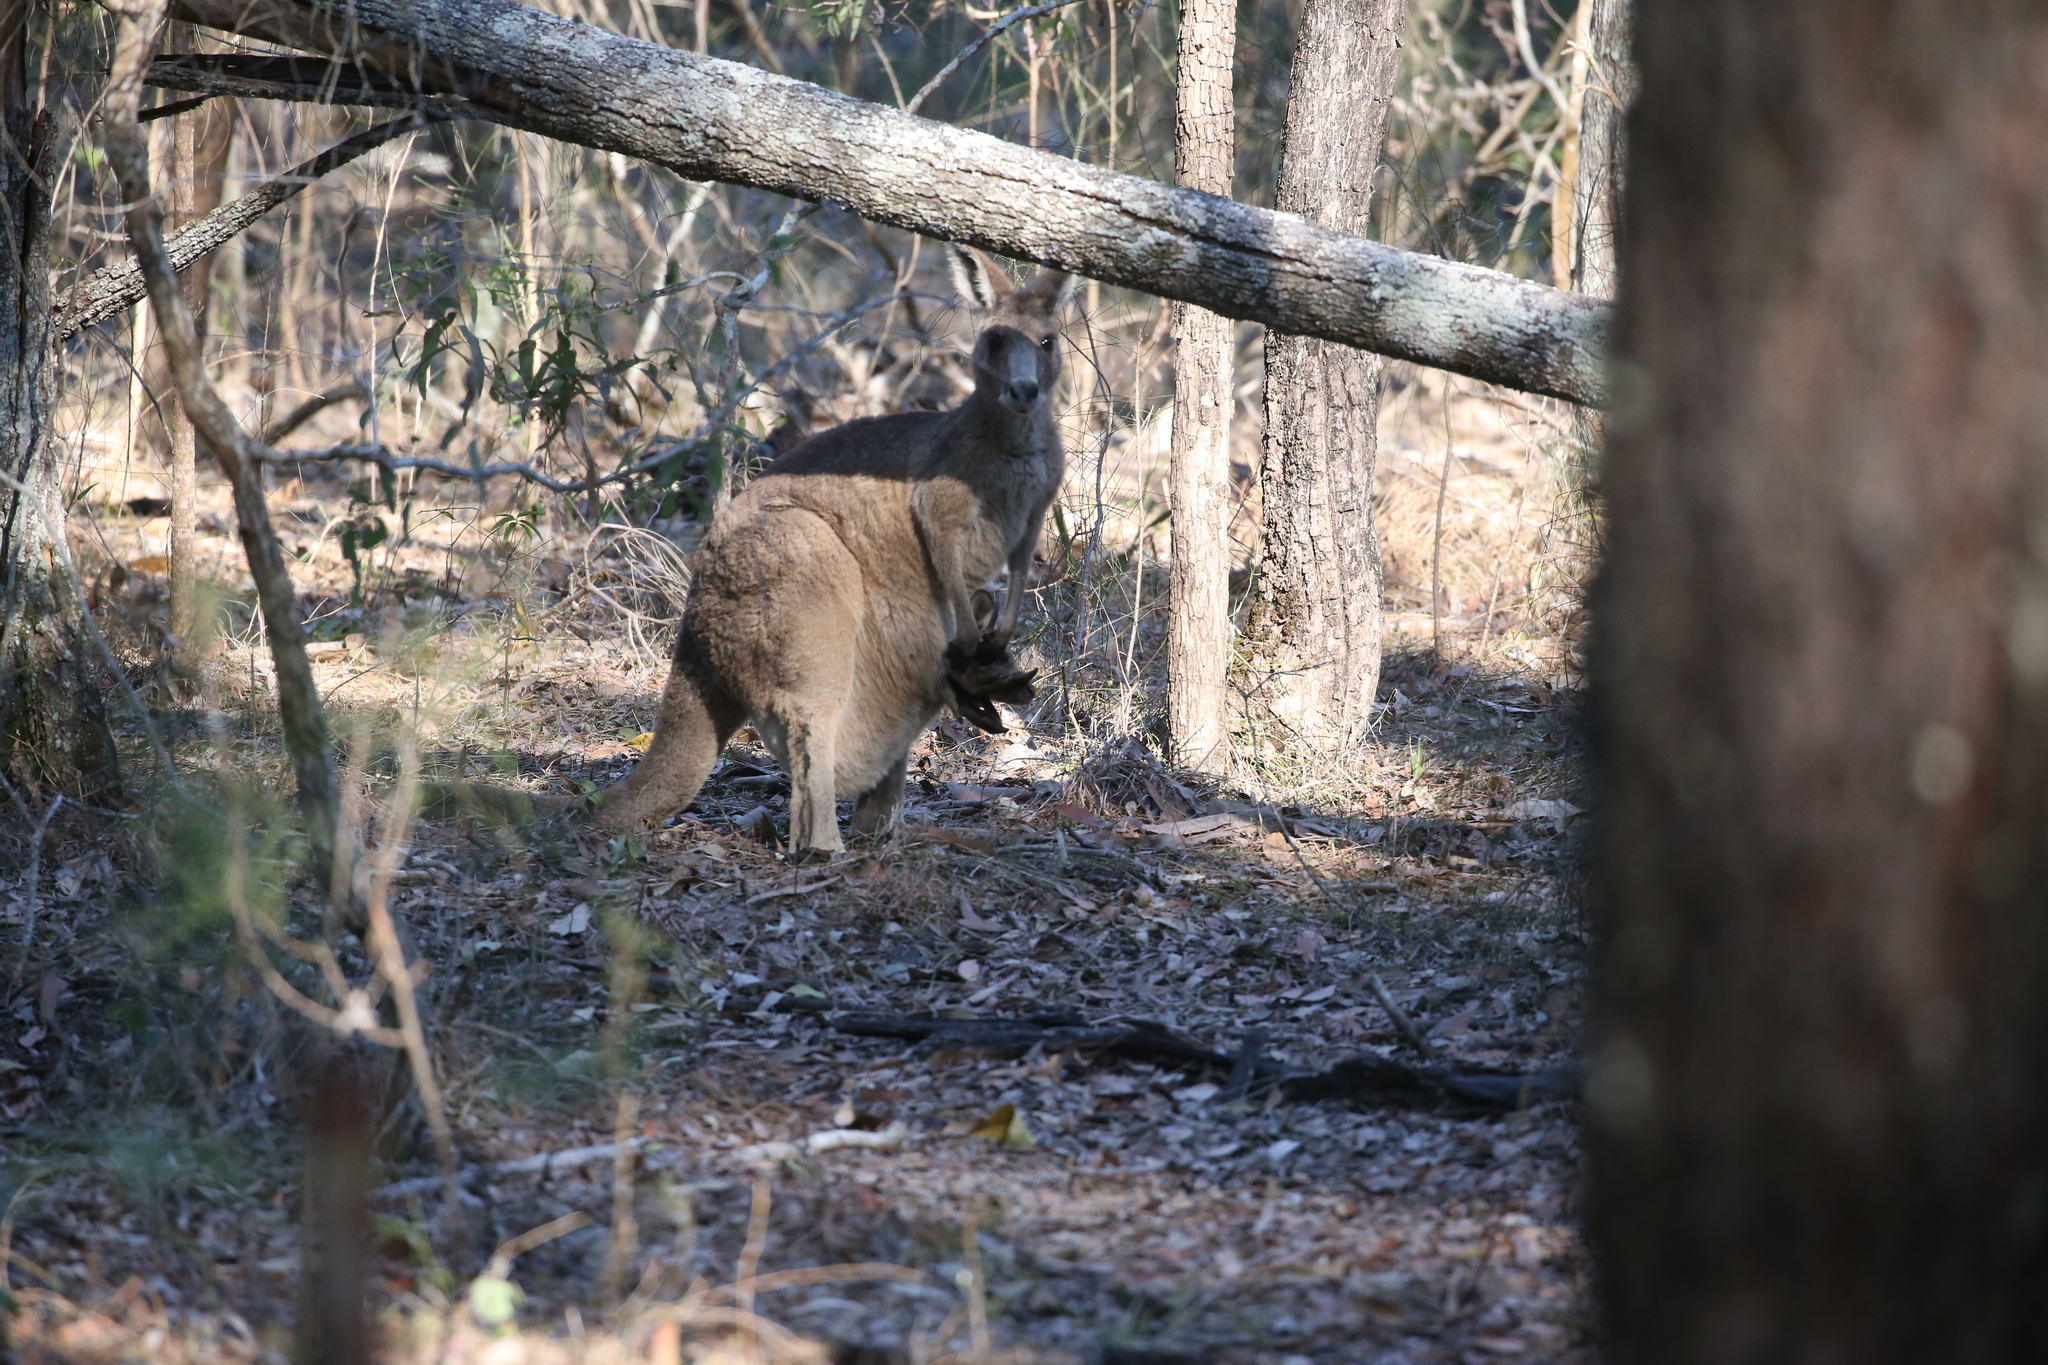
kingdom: Animalia
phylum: Chordata
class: Mammalia
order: Diprotodontia
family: Macropodidae
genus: Macropus
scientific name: Macropus giganteus
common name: Eastern grey kangaroo
